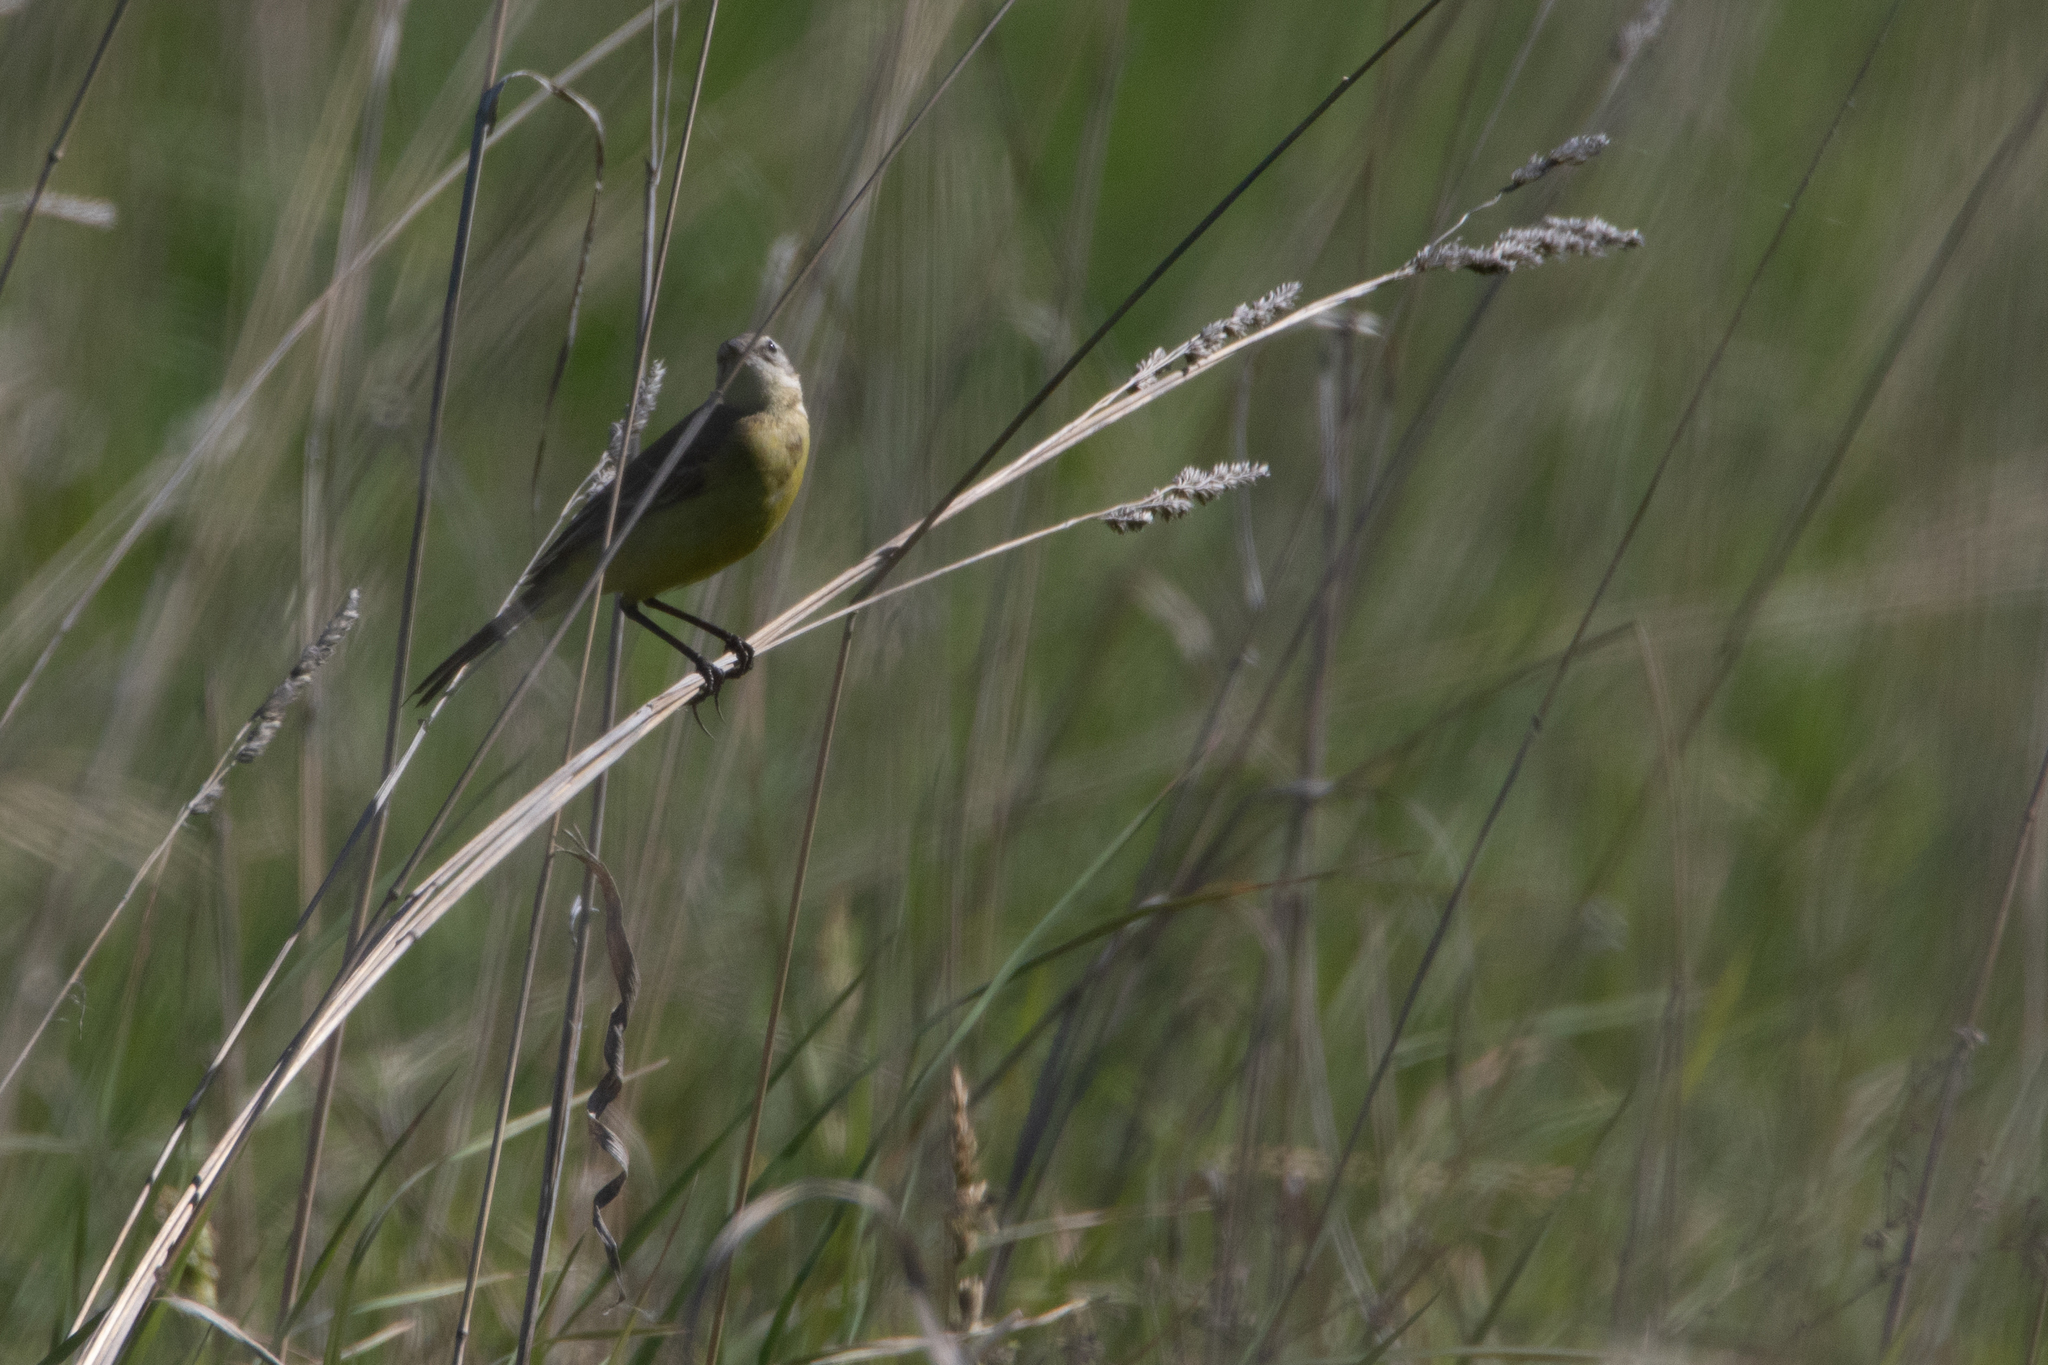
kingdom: Animalia
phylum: Chordata
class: Aves
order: Passeriformes
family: Motacillidae
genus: Motacilla
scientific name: Motacilla flava
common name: Western yellow wagtail
